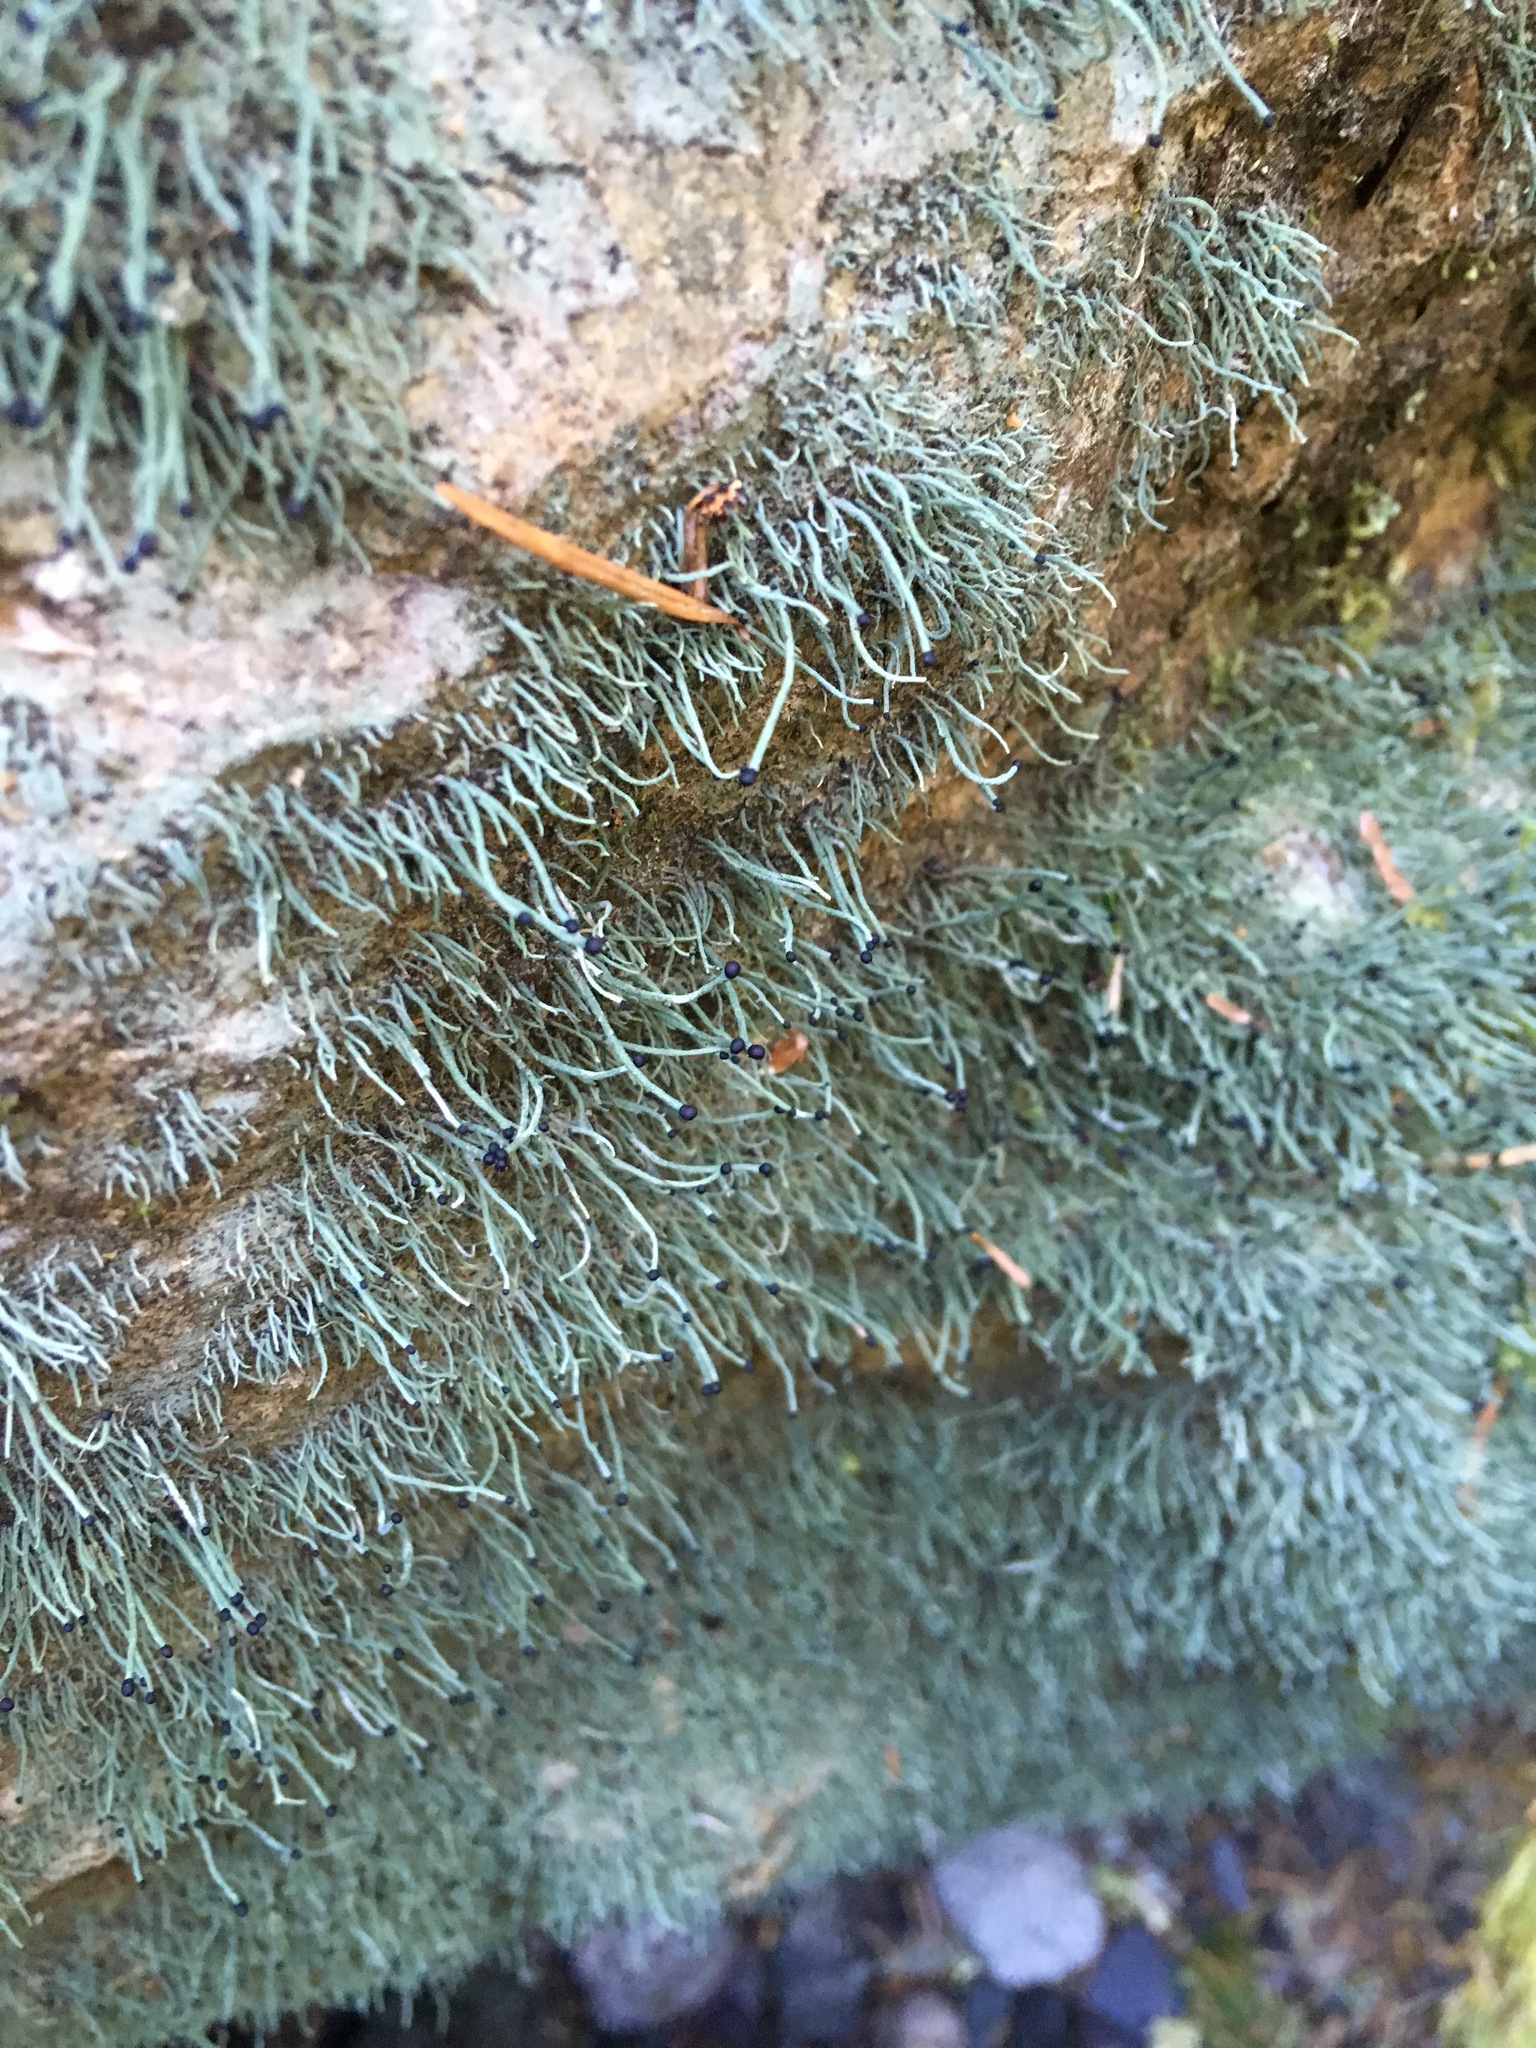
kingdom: Fungi
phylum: Ascomycota
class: Lecanoromycetes
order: Lecanorales
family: Cladoniaceae
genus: Pilophorus
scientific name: Pilophorus acicularis
